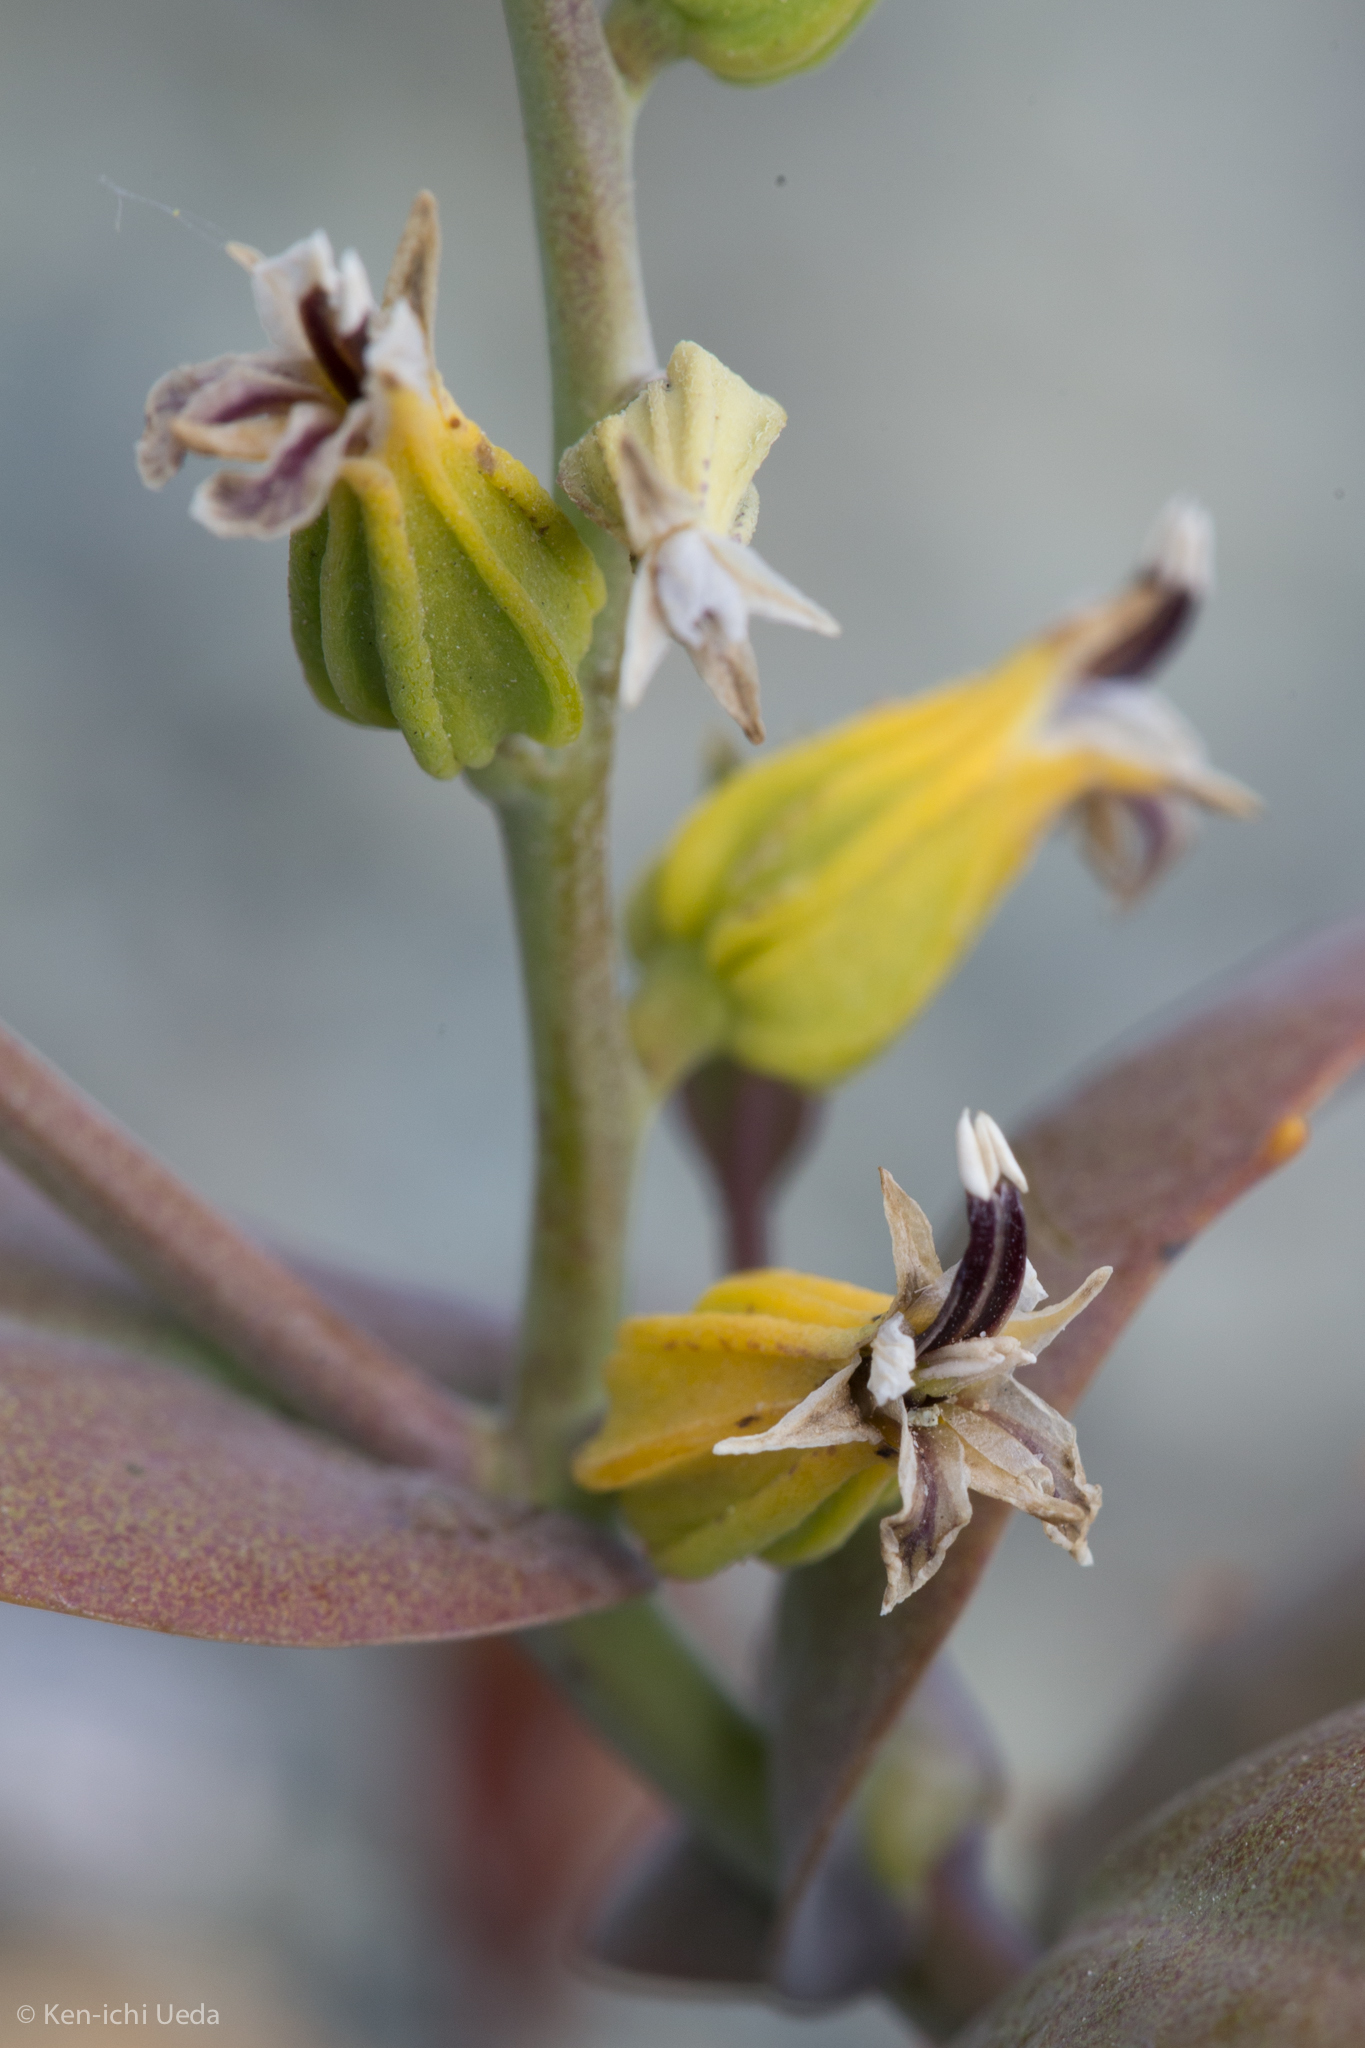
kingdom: Plantae
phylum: Tracheophyta
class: Magnoliopsida
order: Brassicales
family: Brassicaceae
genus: Streptanthus
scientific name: Streptanthus hesperidis
